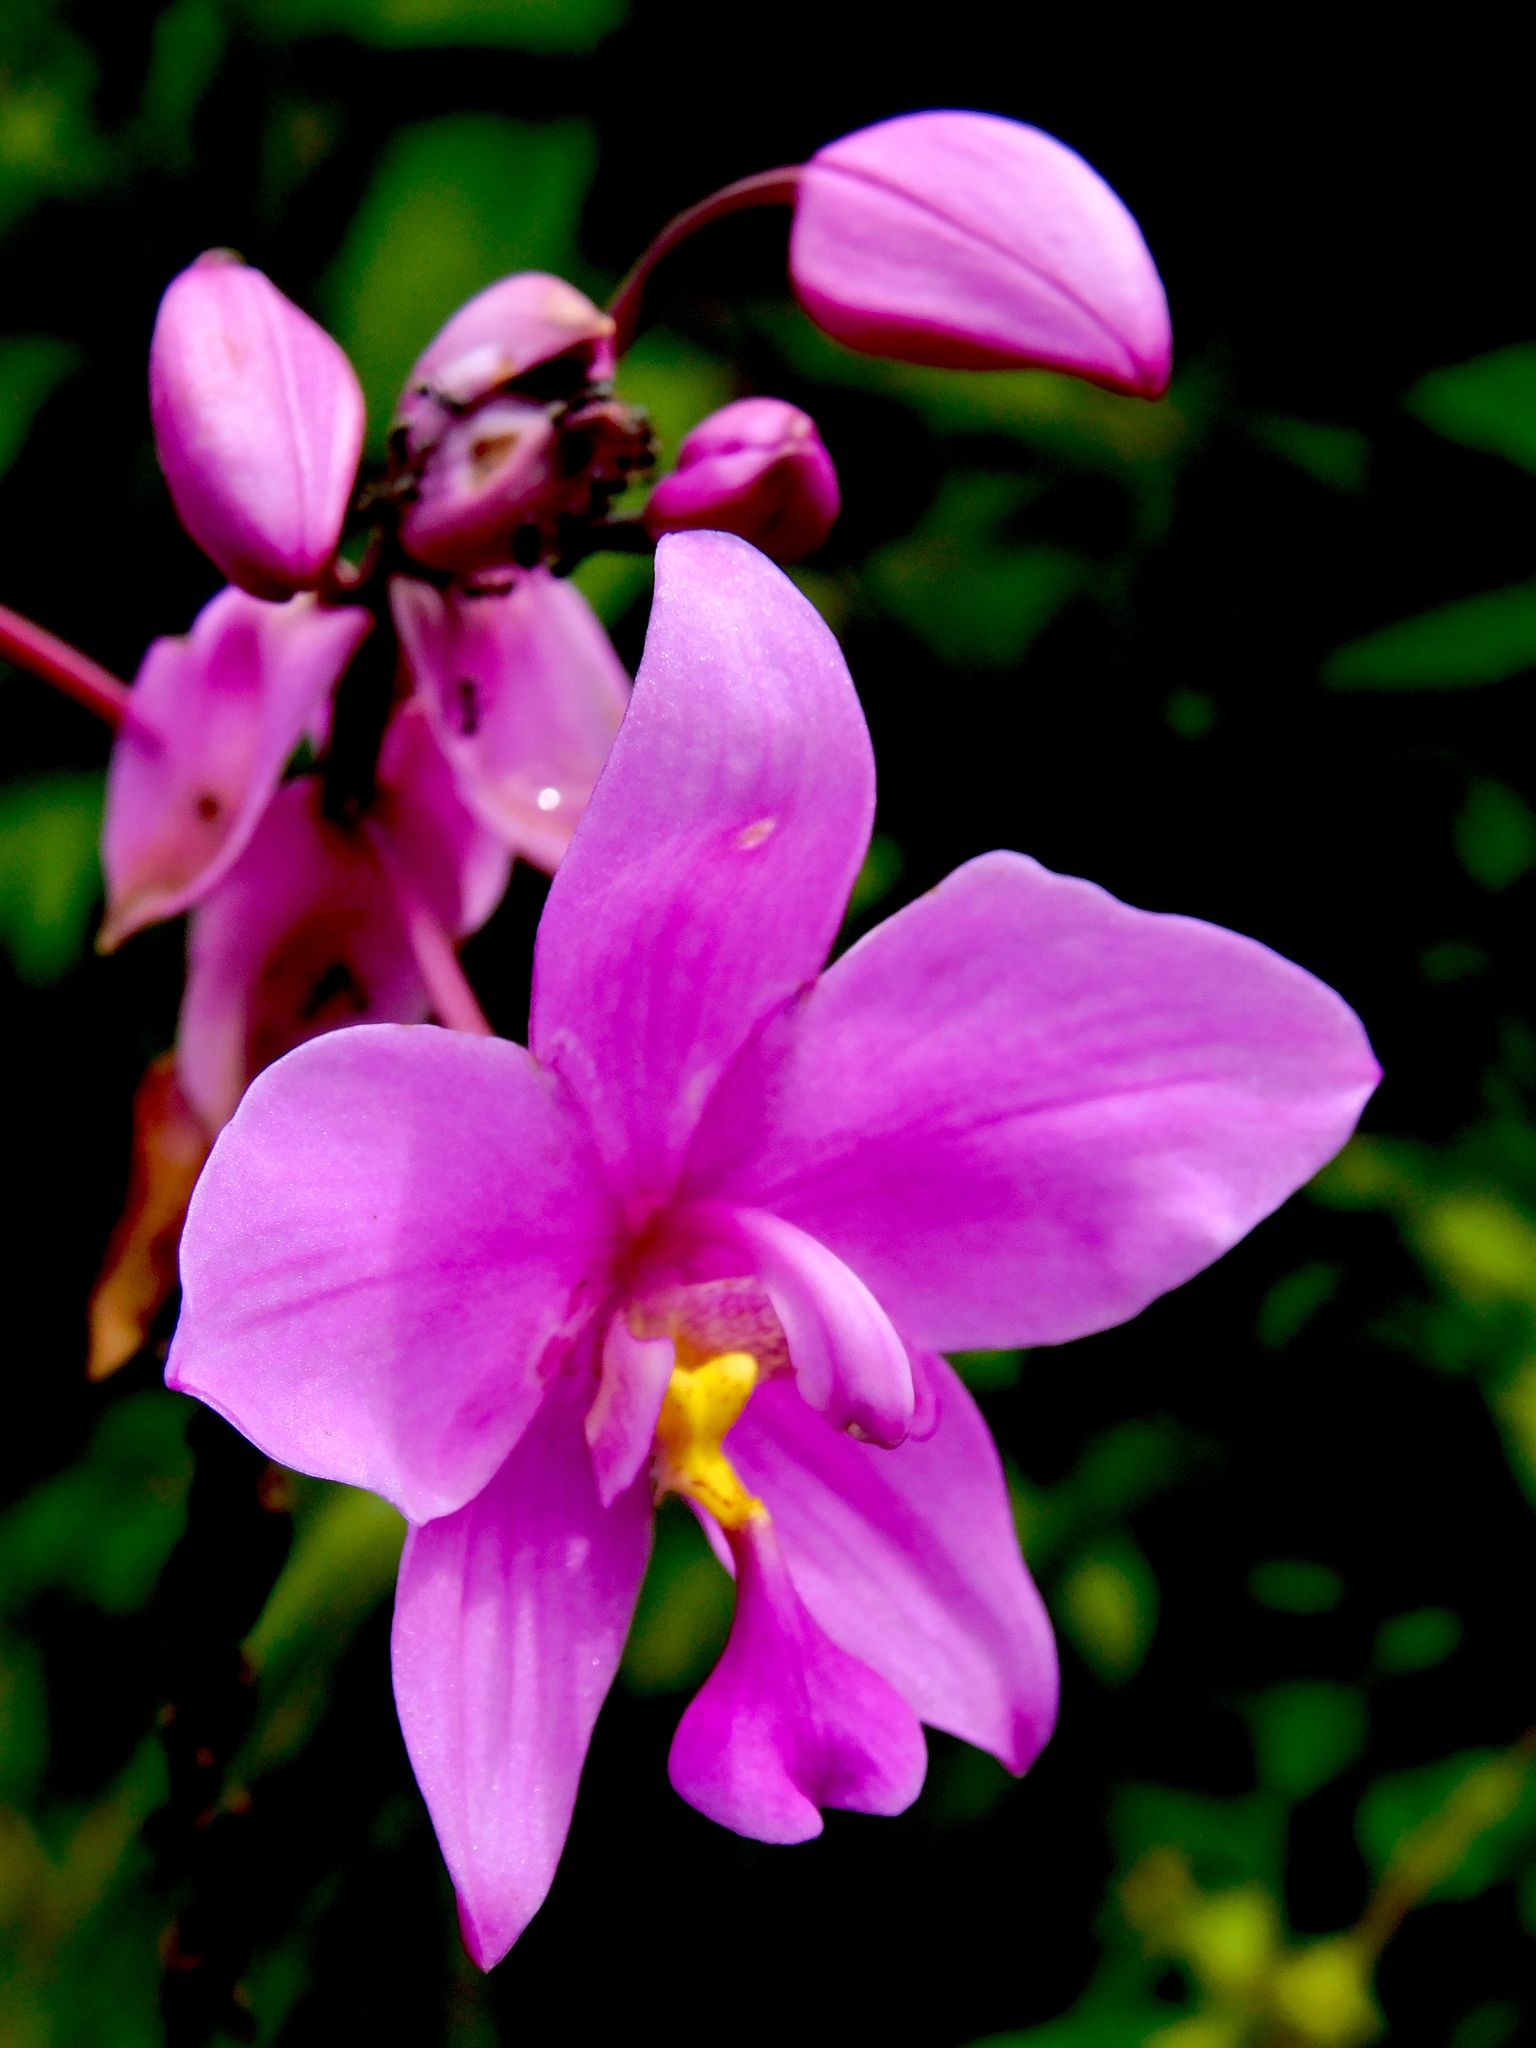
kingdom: Plantae
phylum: Tracheophyta
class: Liliopsida
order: Asparagales
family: Orchidaceae
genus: Spathoglottis
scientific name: Spathoglottis plicata
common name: Philippine ground orchid
